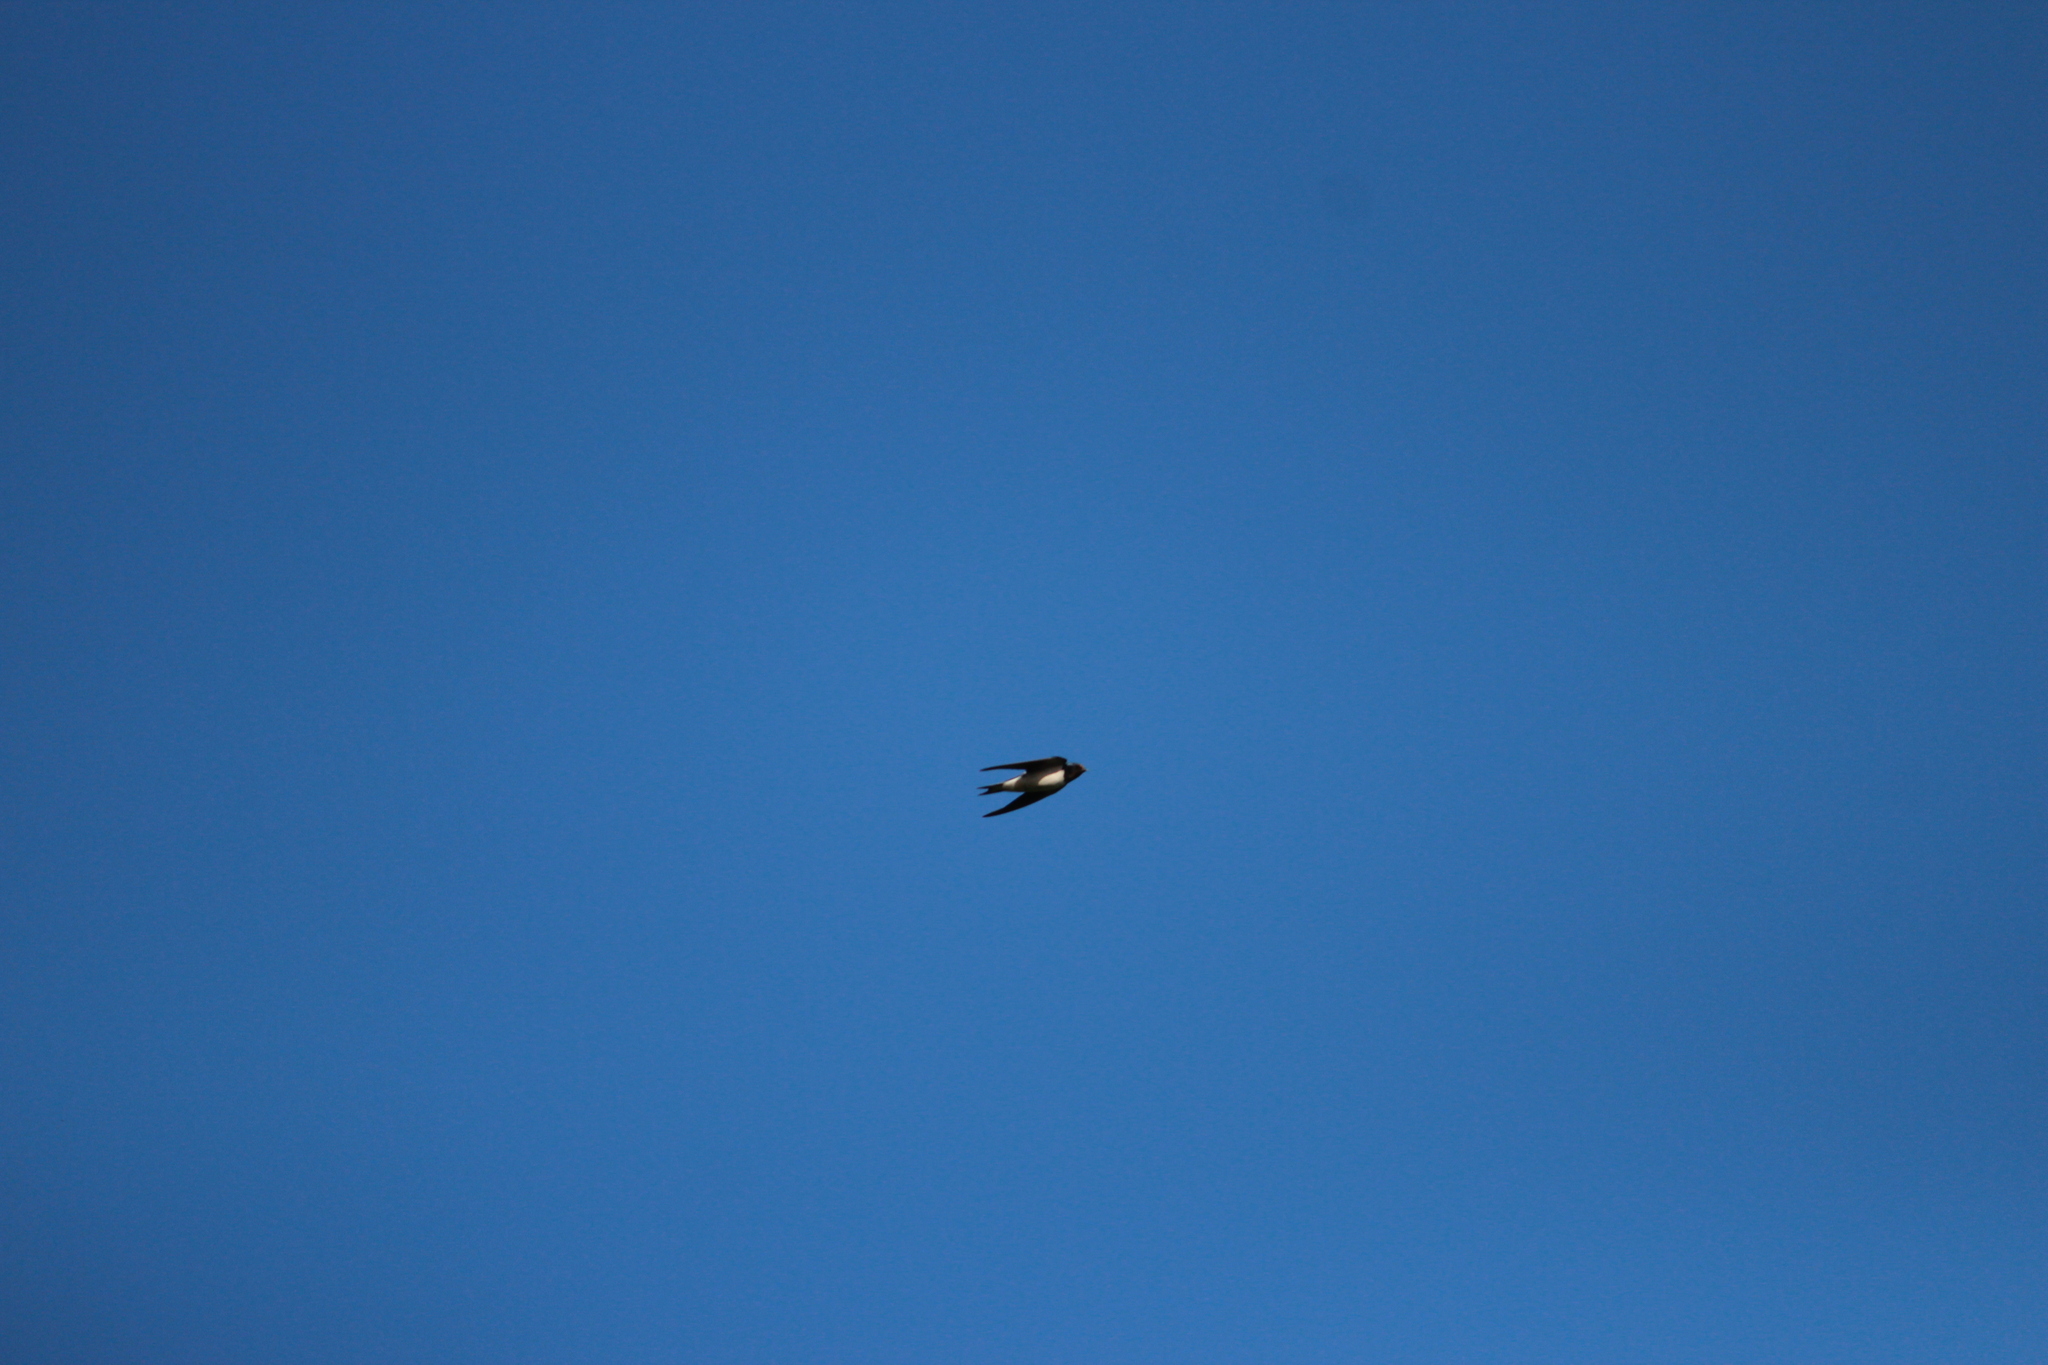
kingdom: Animalia
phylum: Chordata
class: Aves
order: Passeriformes
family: Hirundinidae
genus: Hirundo
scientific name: Hirundo rustica
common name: Barn swallow
